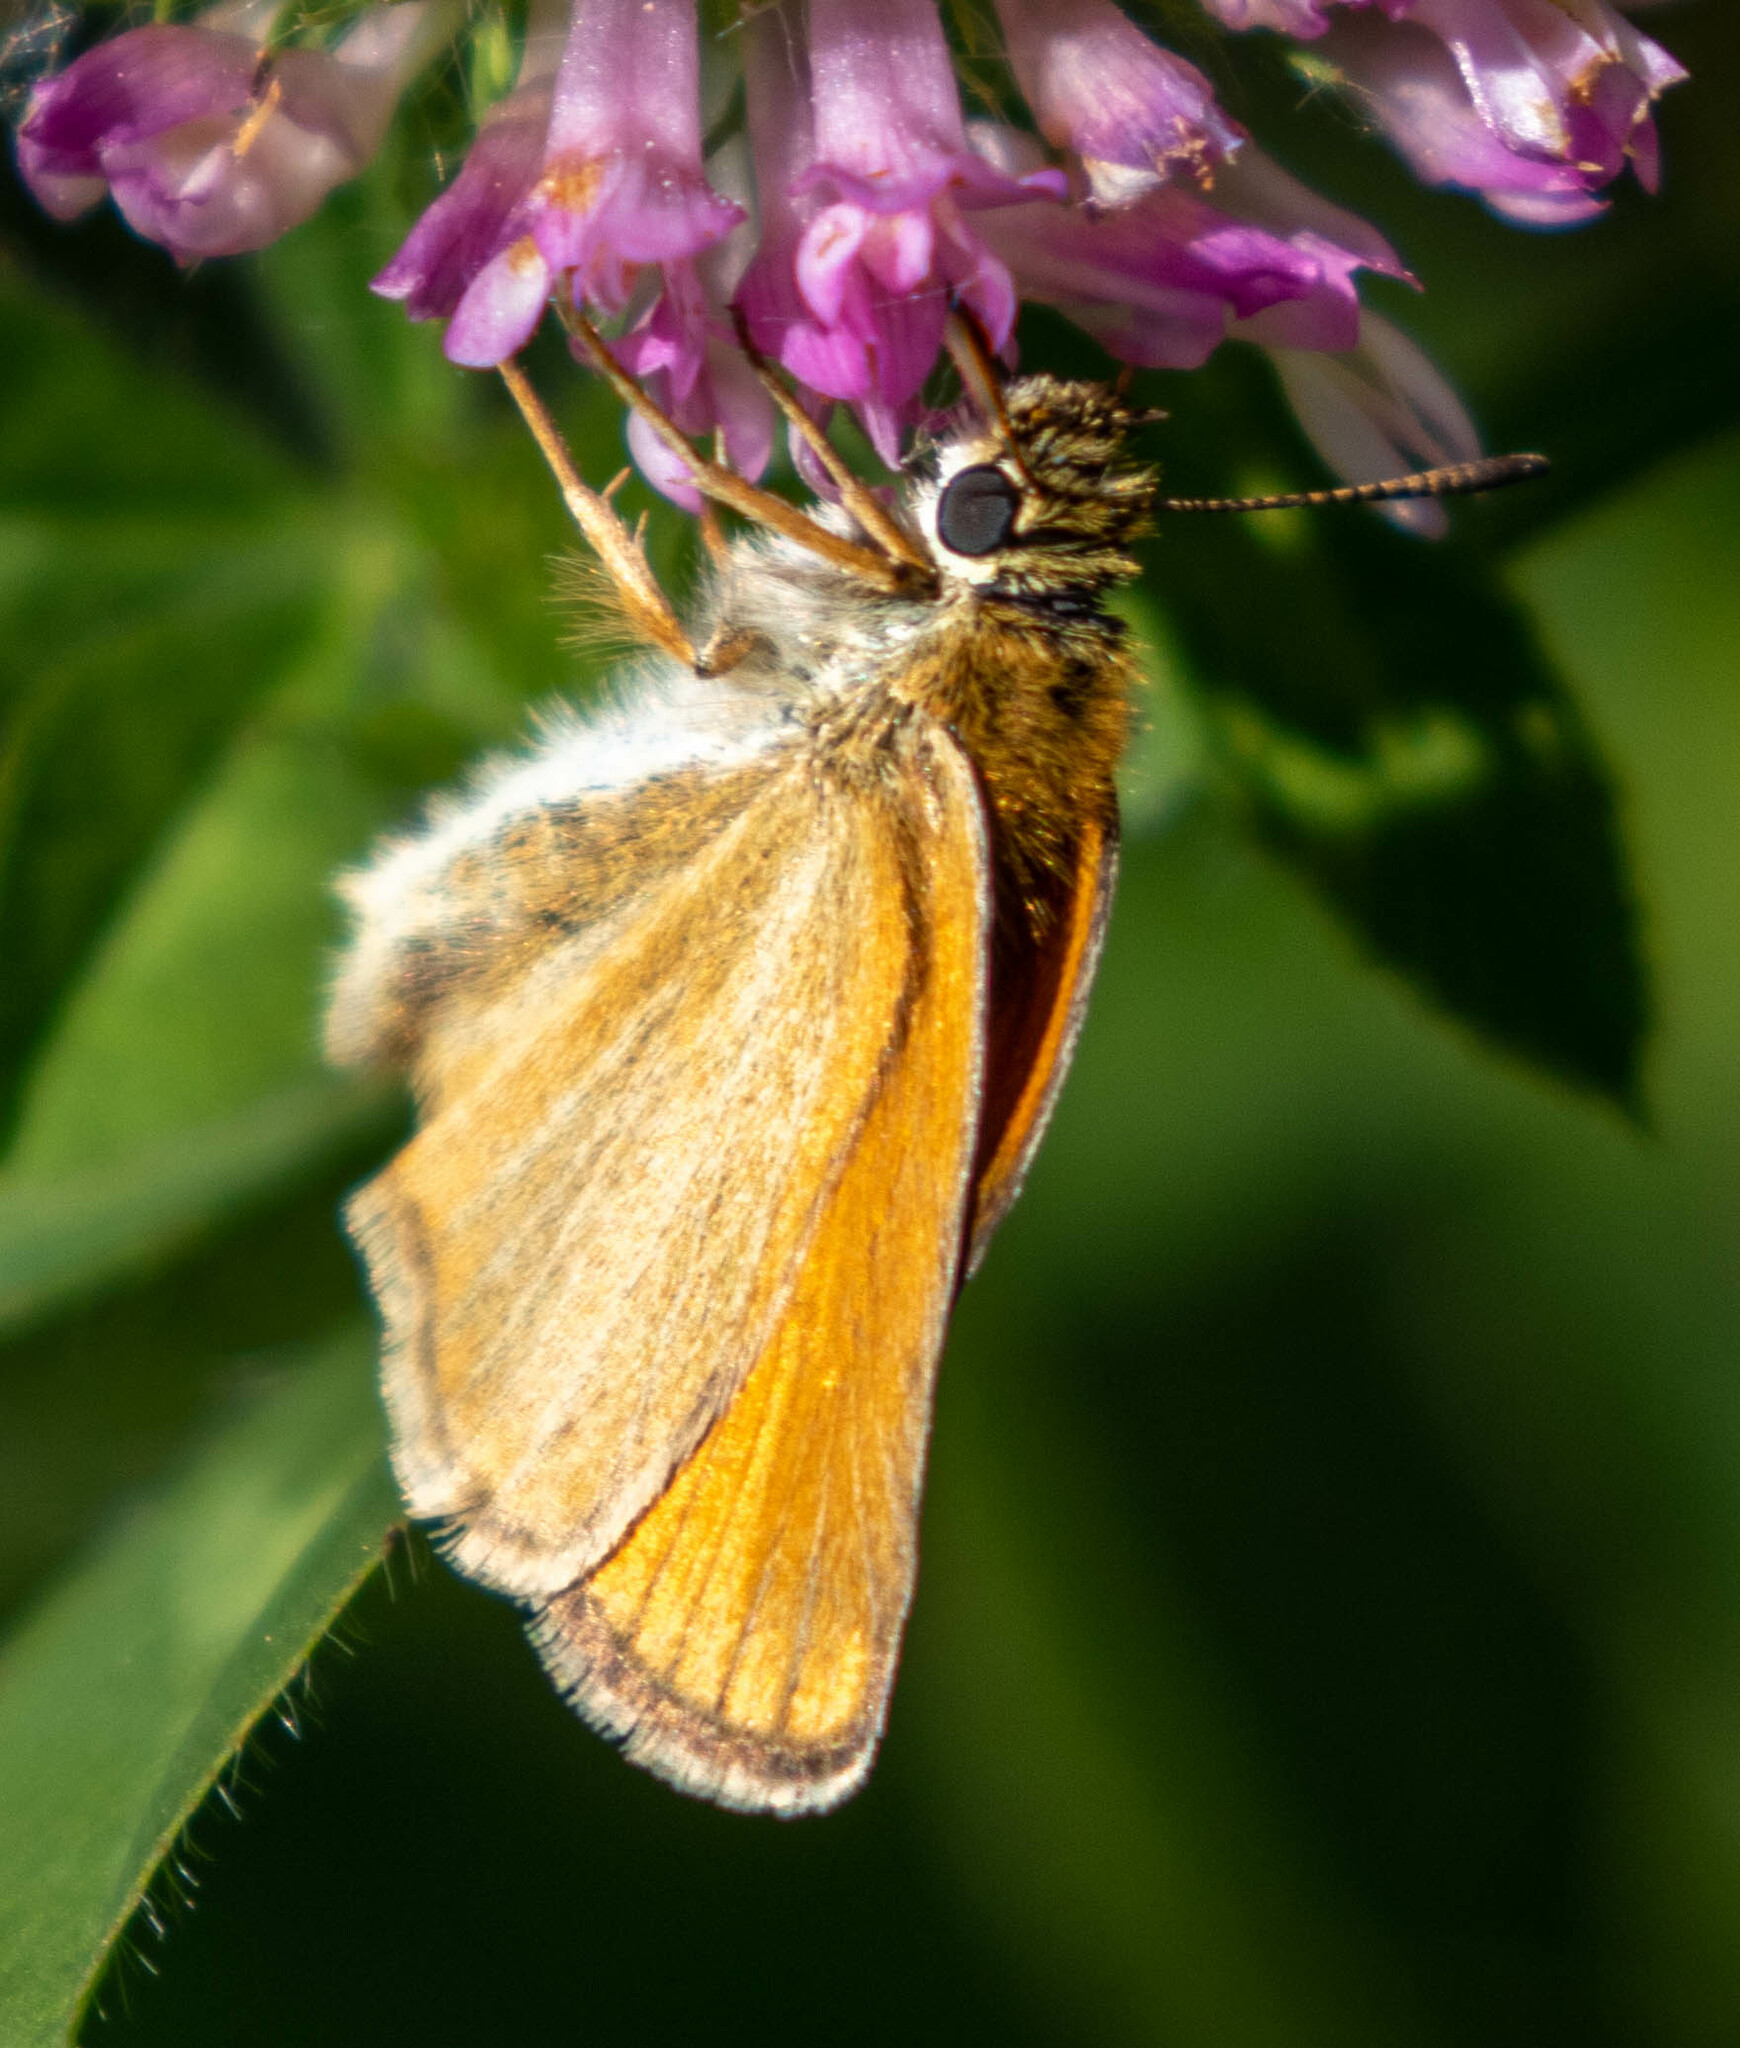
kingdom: Animalia
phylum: Arthropoda
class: Insecta
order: Lepidoptera
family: Hesperiidae
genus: Thymelicus
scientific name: Thymelicus lineola
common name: Essex skipper
